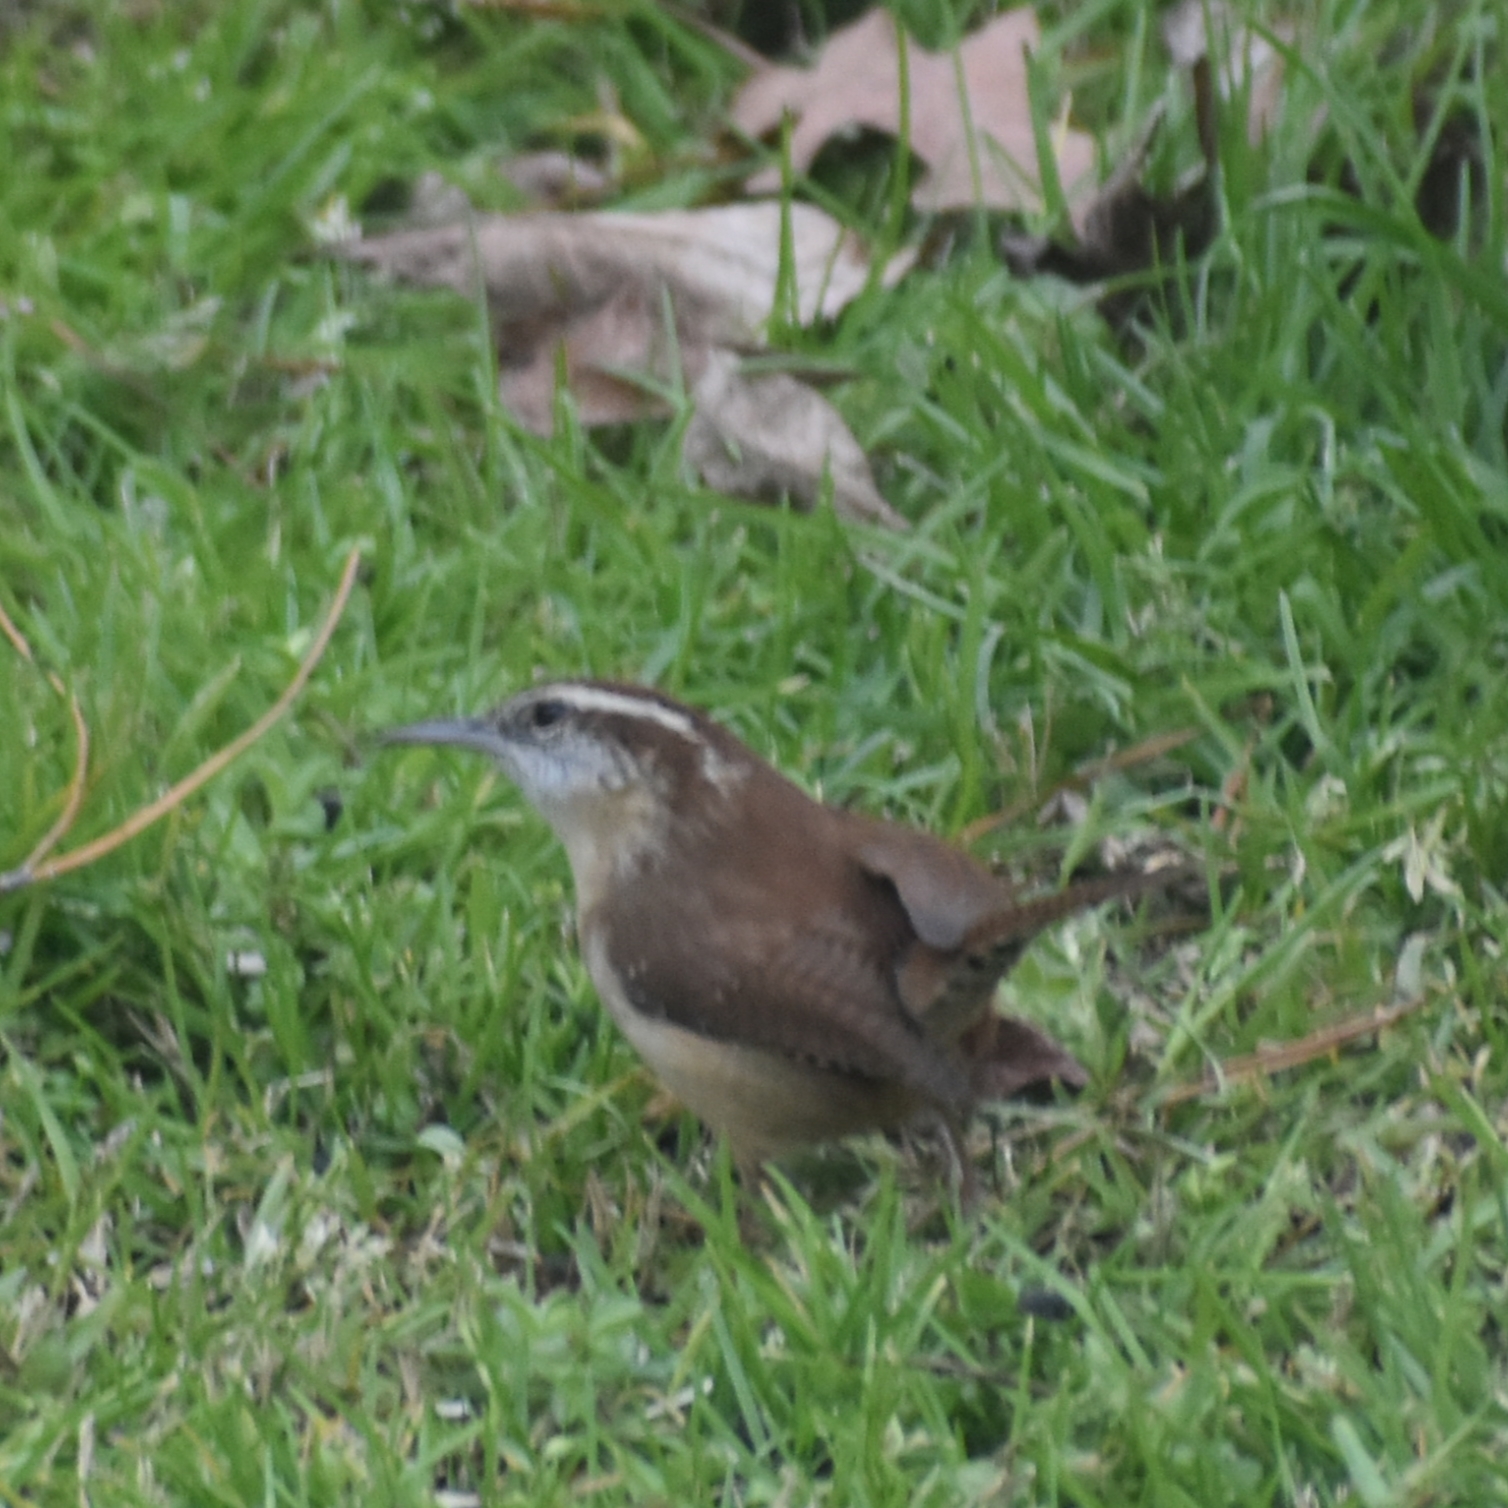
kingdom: Animalia
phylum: Chordata
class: Aves
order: Passeriformes
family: Troglodytidae
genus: Thryothorus
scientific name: Thryothorus ludovicianus
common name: Carolina wren
